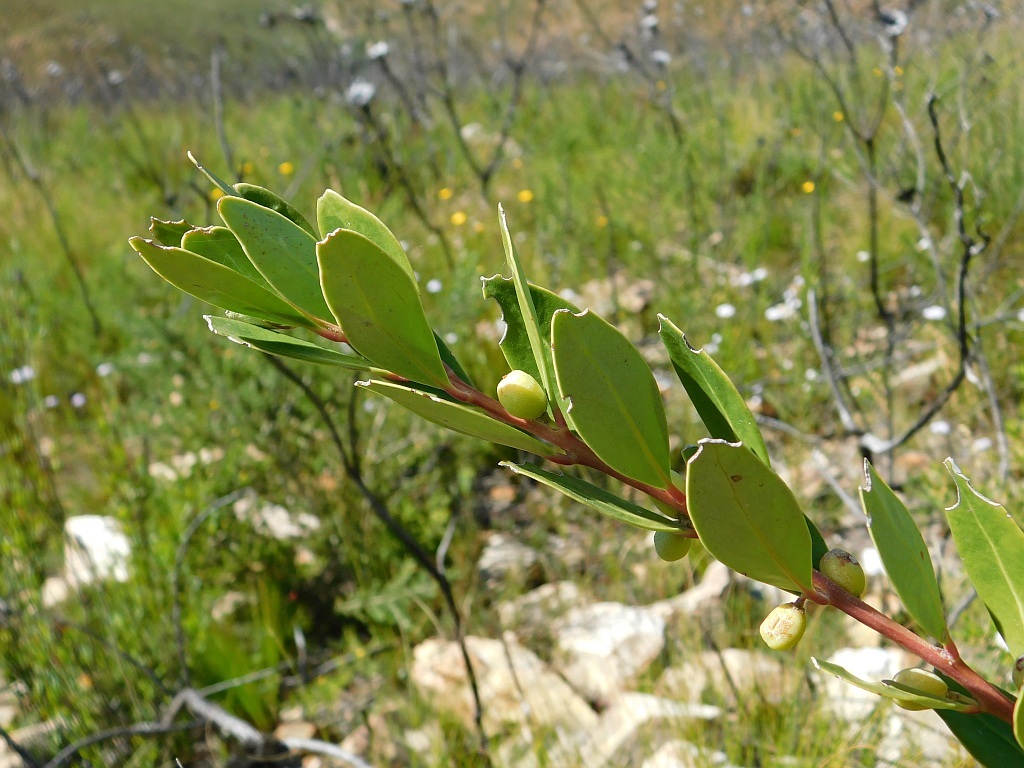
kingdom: Plantae
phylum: Tracheophyta
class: Magnoliopsida
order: Celastrales
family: Celastraceae
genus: Gymnosporia
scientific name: Gymnosporia laurina
